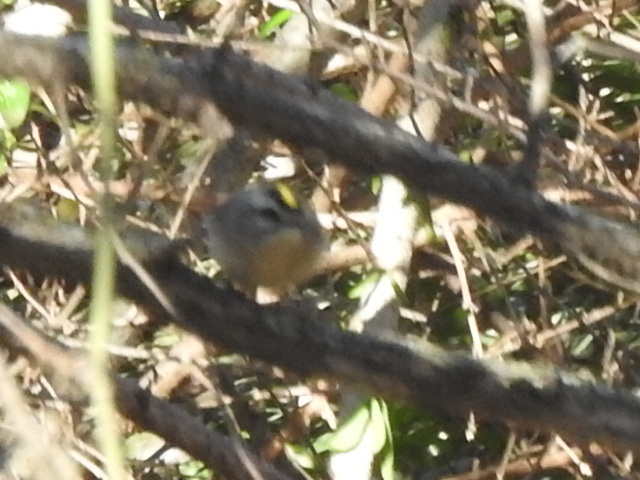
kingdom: Animalia
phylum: Chordata
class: Aves
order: Passeriformes
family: Regulidae
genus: Regulus
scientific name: Regulus satrapa
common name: Golden-crowned kinglet
